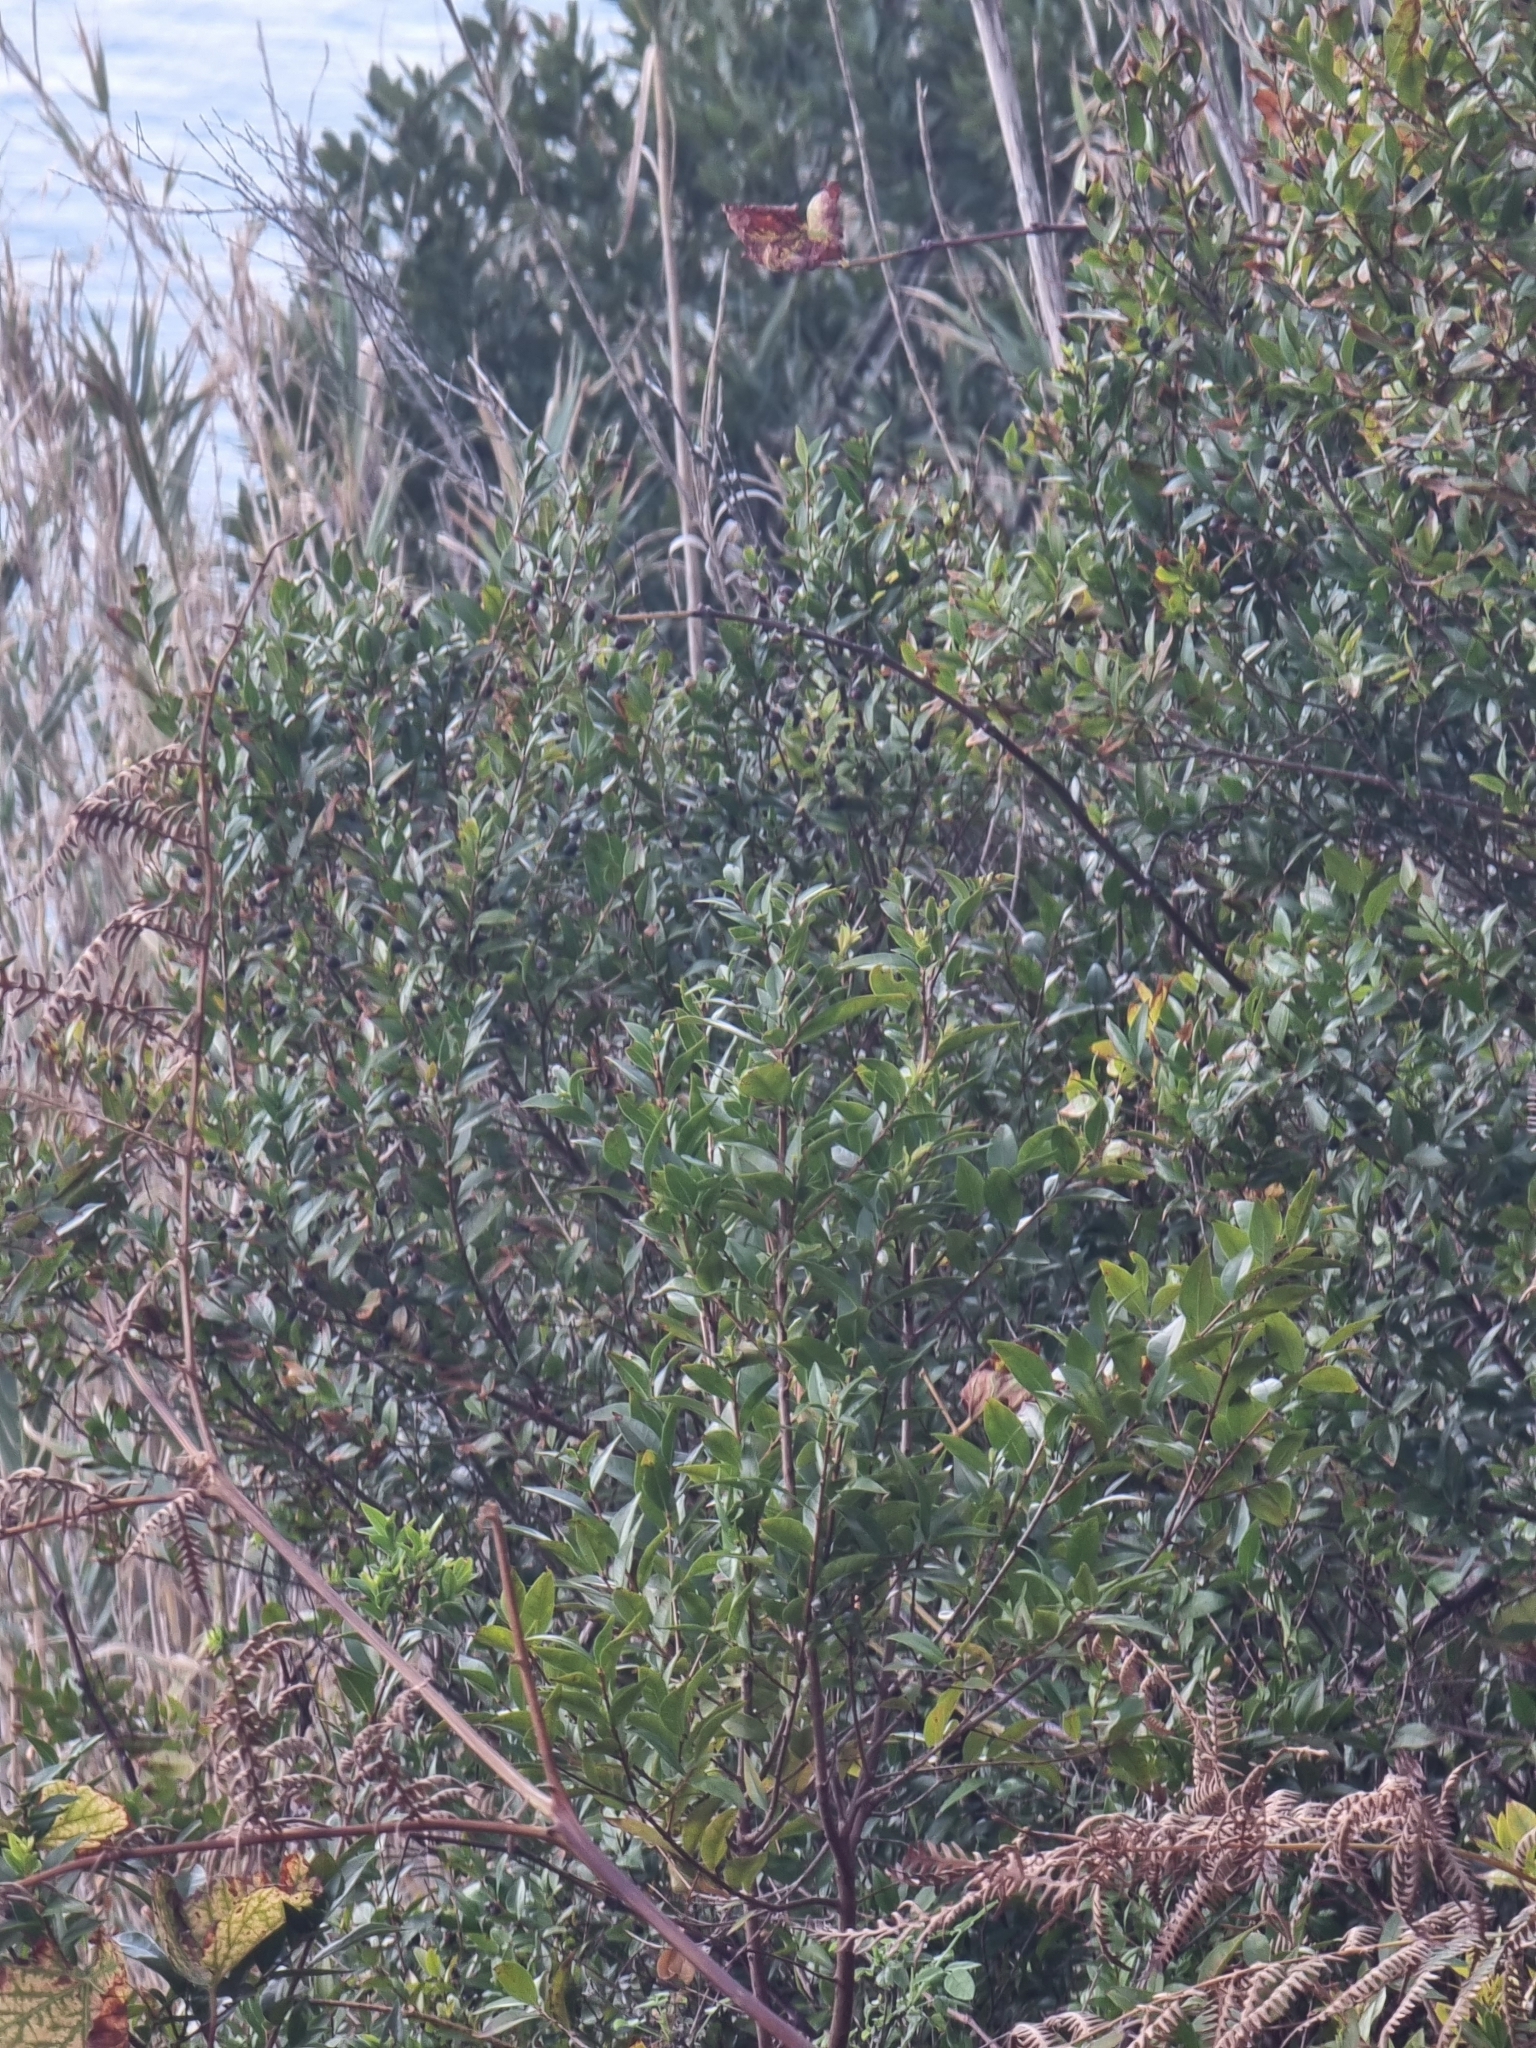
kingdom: Plantae
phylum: Tracheophyta
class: Magnoliopsida
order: Myrtales
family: Myrtaceae
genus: Myrtus
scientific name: Myrtus communis
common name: Myrtle
